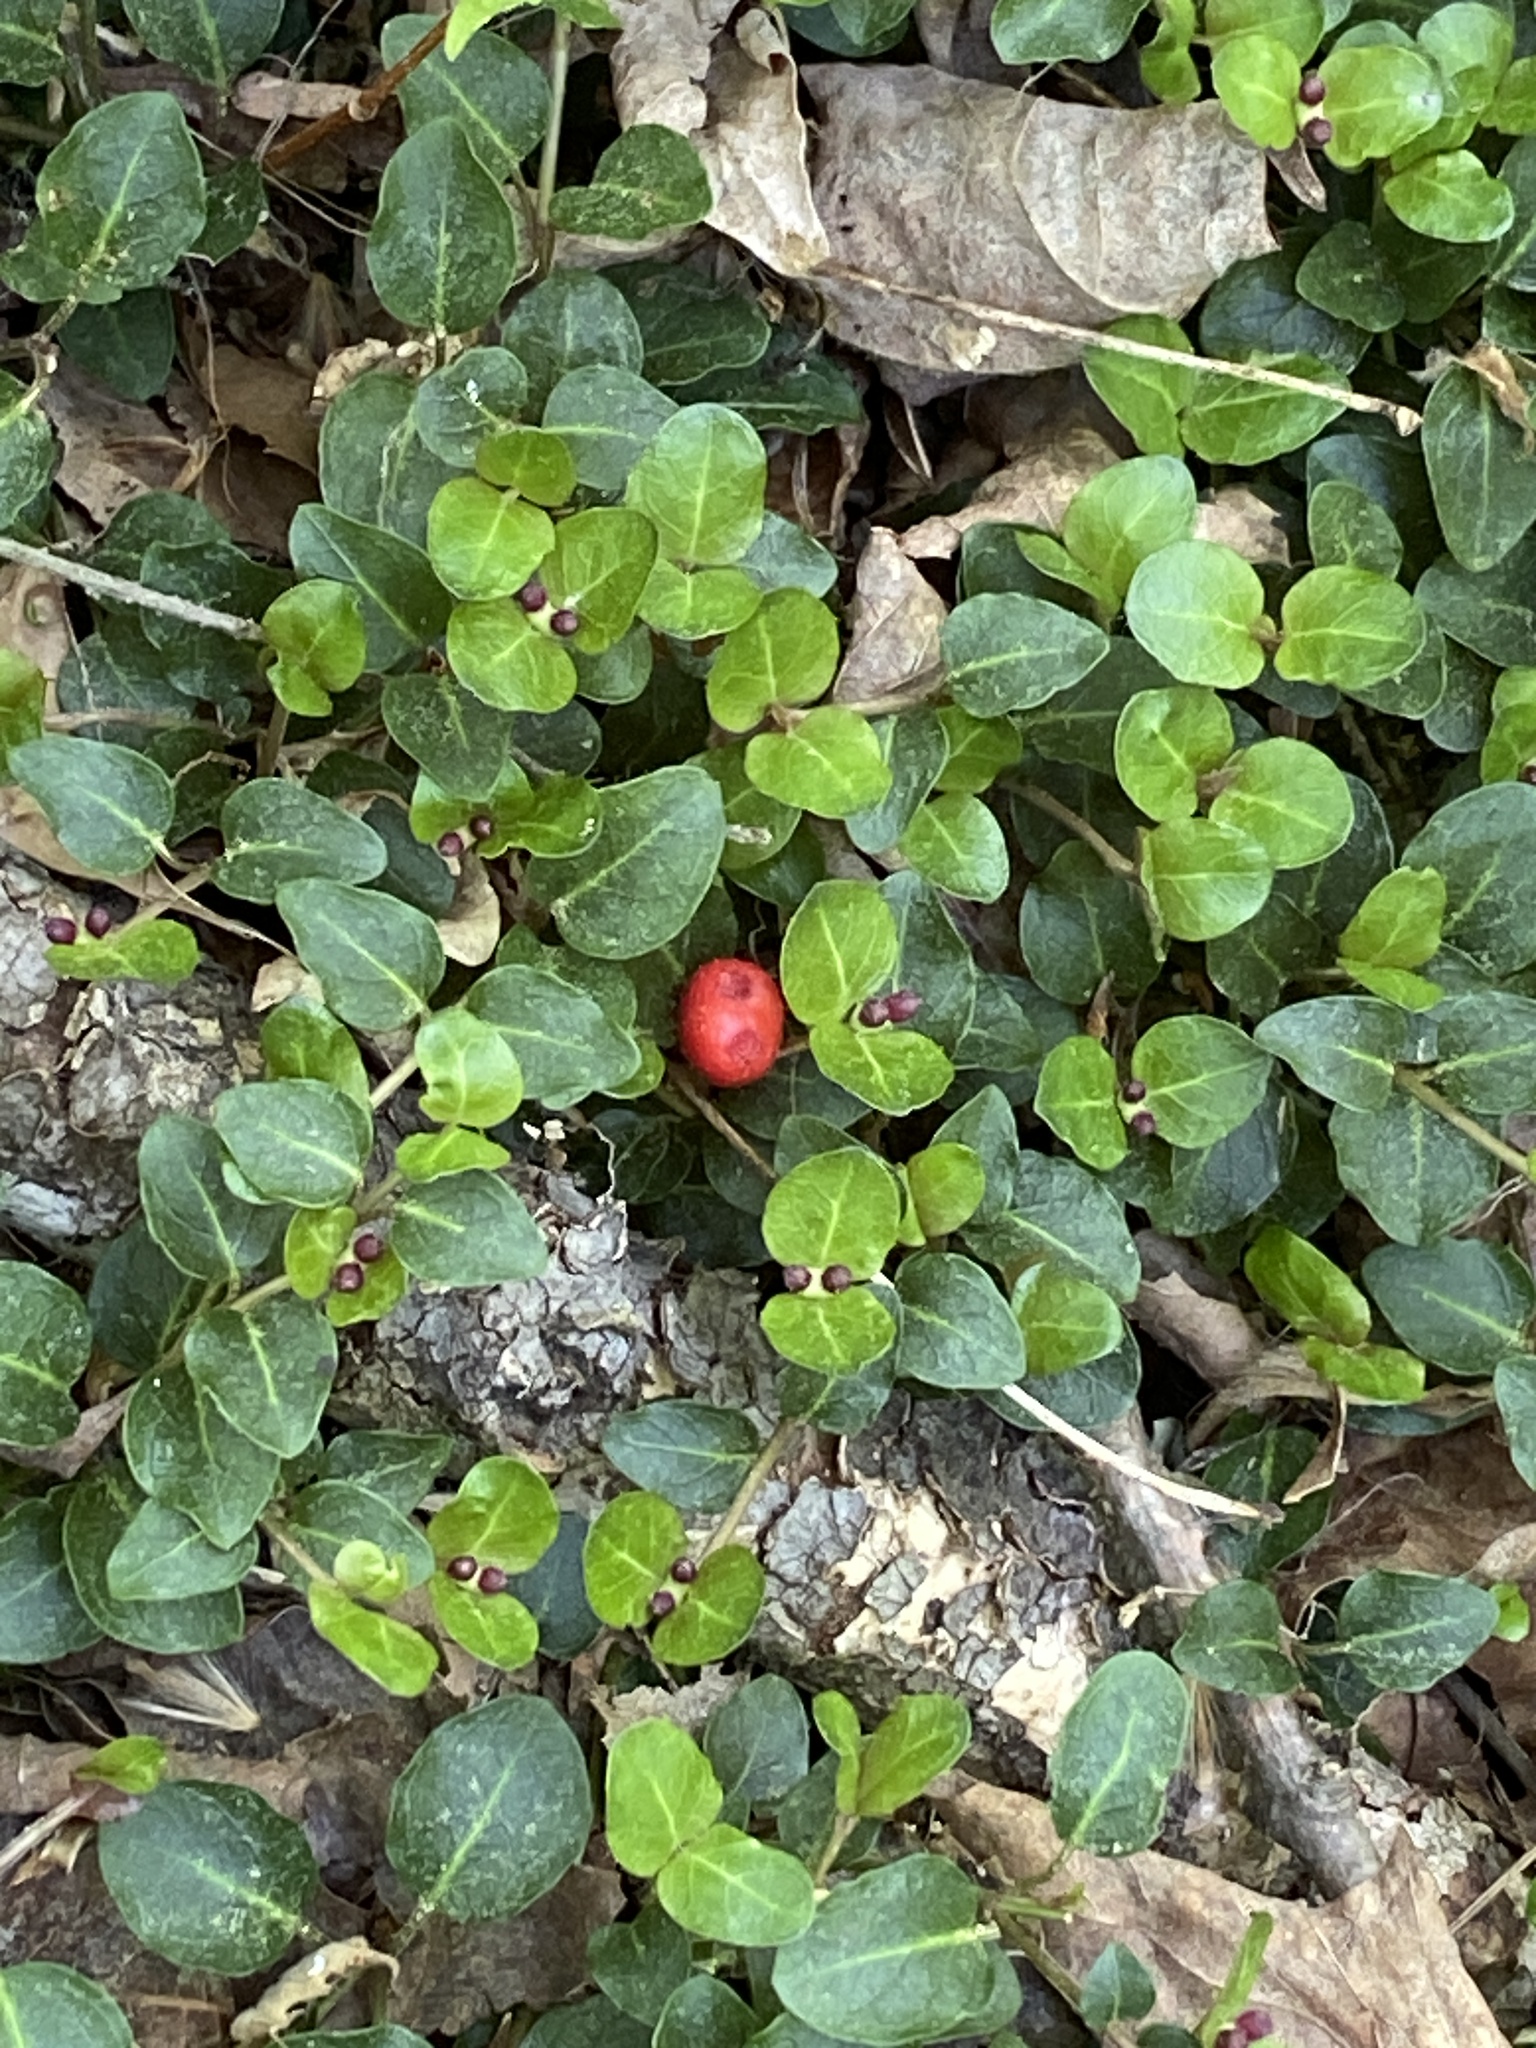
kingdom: Plantae
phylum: Tracheophyta
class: Magnoliopsida
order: Gentianales
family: Rubiaceae
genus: Mitchella
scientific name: Mitchella repens
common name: Partridge-berry
